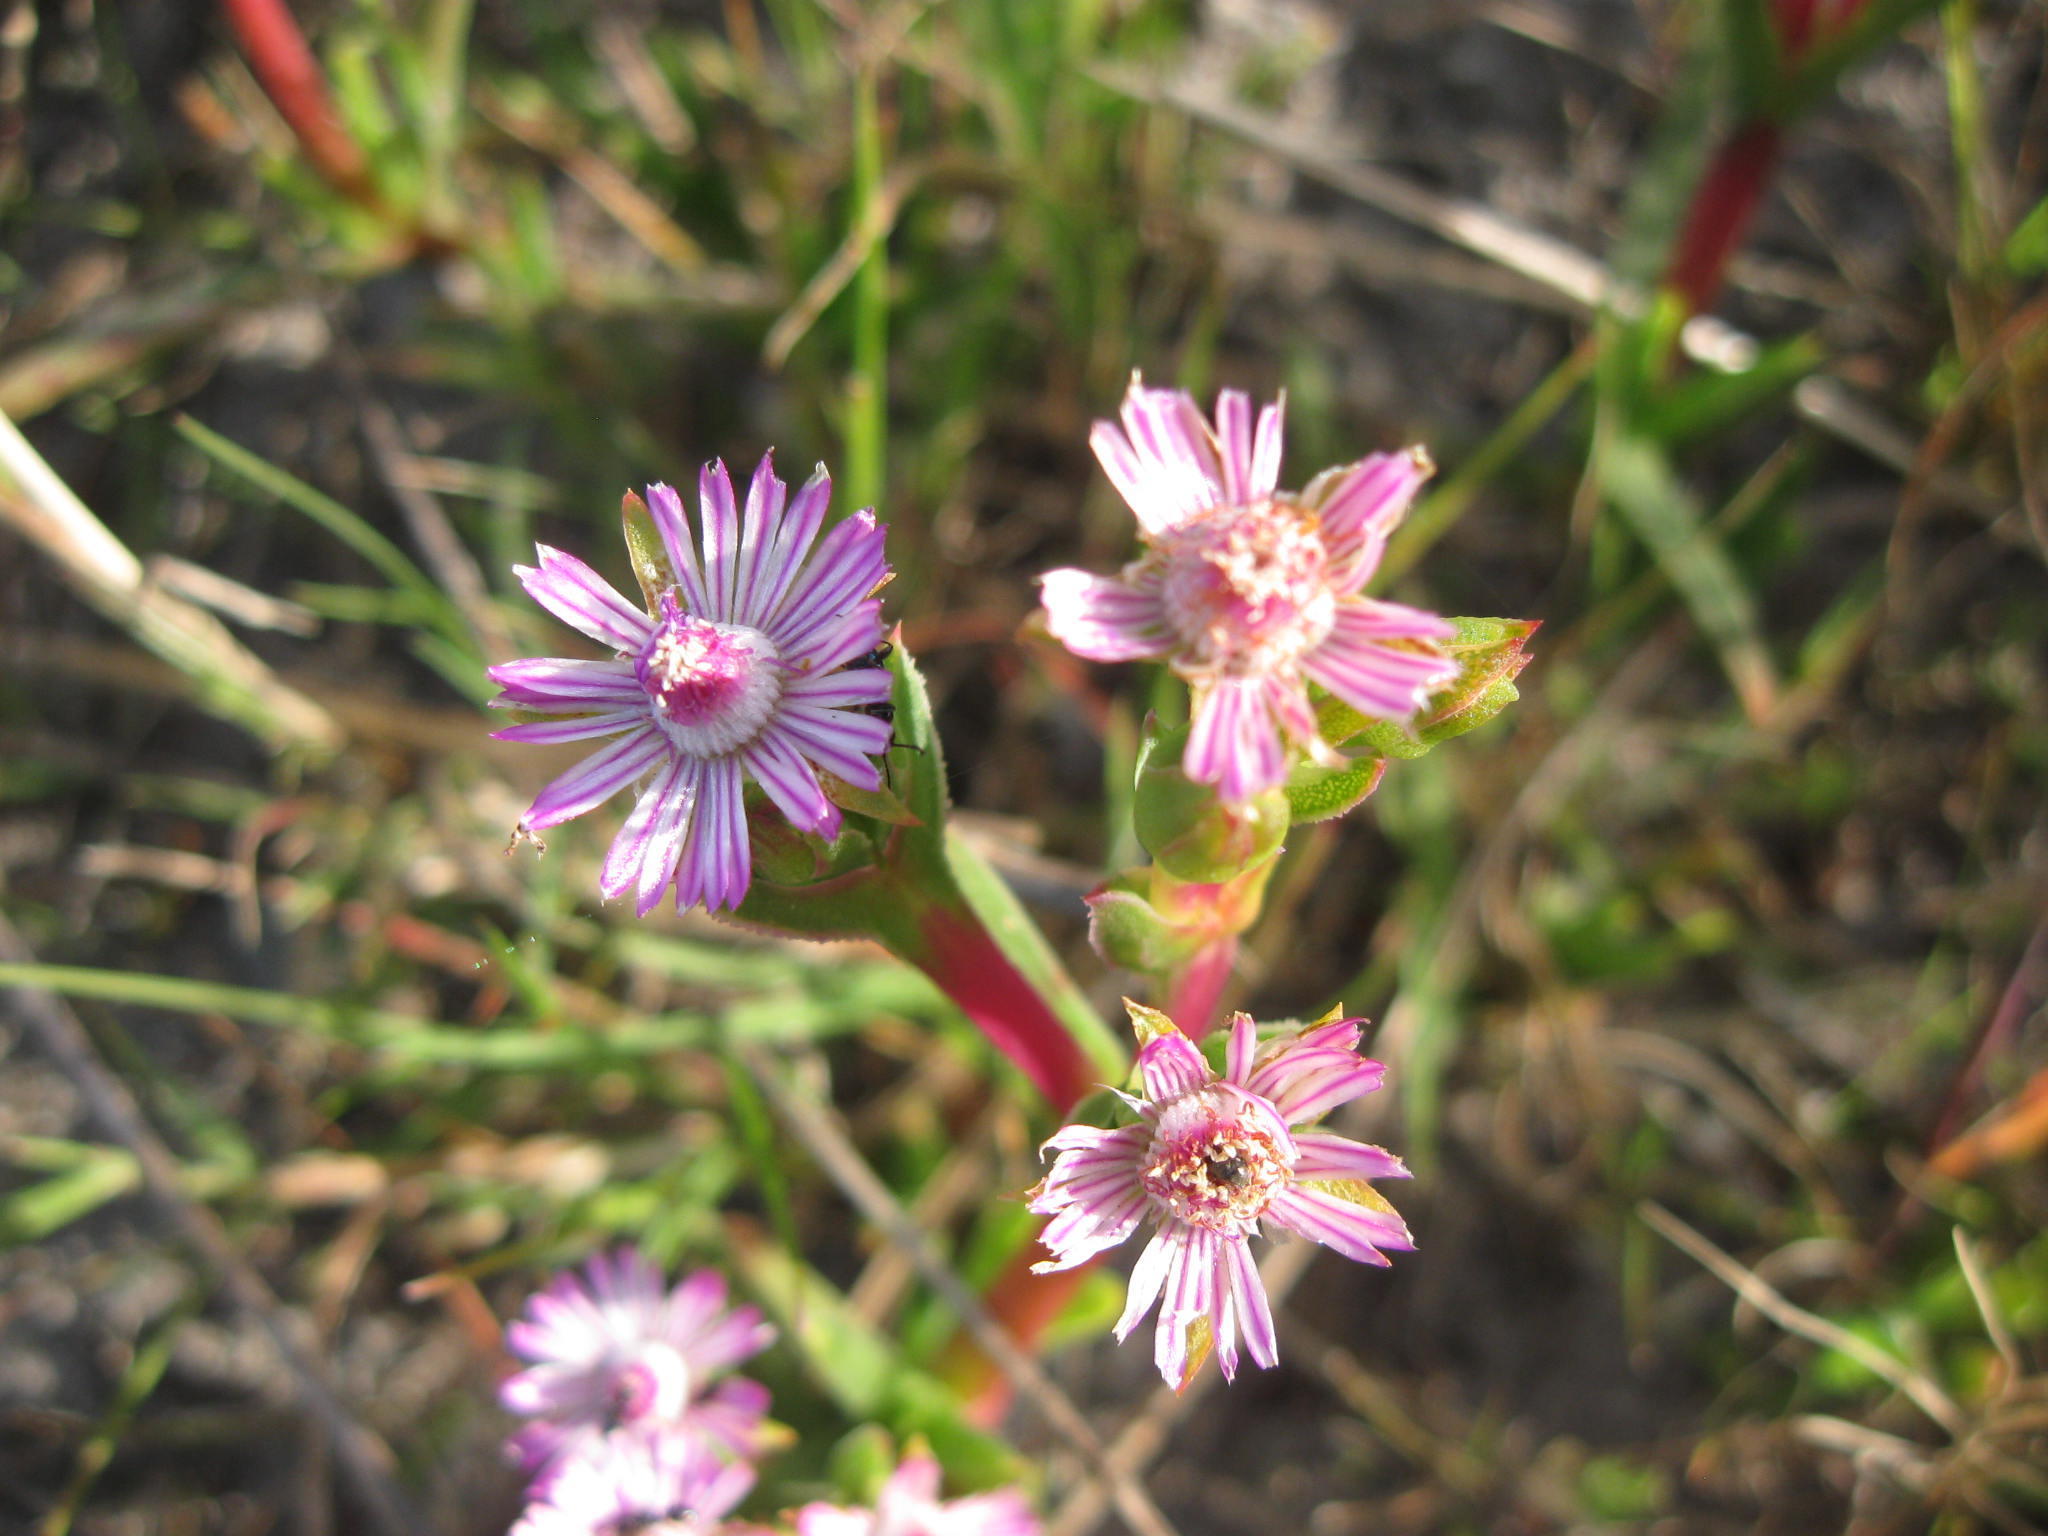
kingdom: Plantae
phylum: Tracheophyta
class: Magnoliopsida
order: Caryophyllales
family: Aizoaceae
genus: Ruschia
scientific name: Ruschia geminiflora
